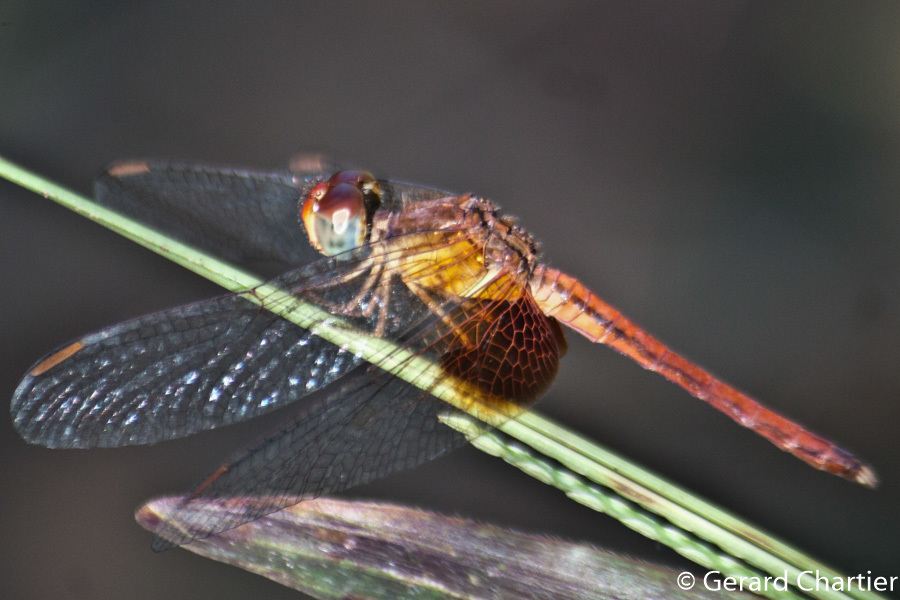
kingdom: Animalia
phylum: Arthropoda
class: Insecta
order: Odonata
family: Libellulidae
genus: Neurothemis
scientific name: Neurothemis intermedia
